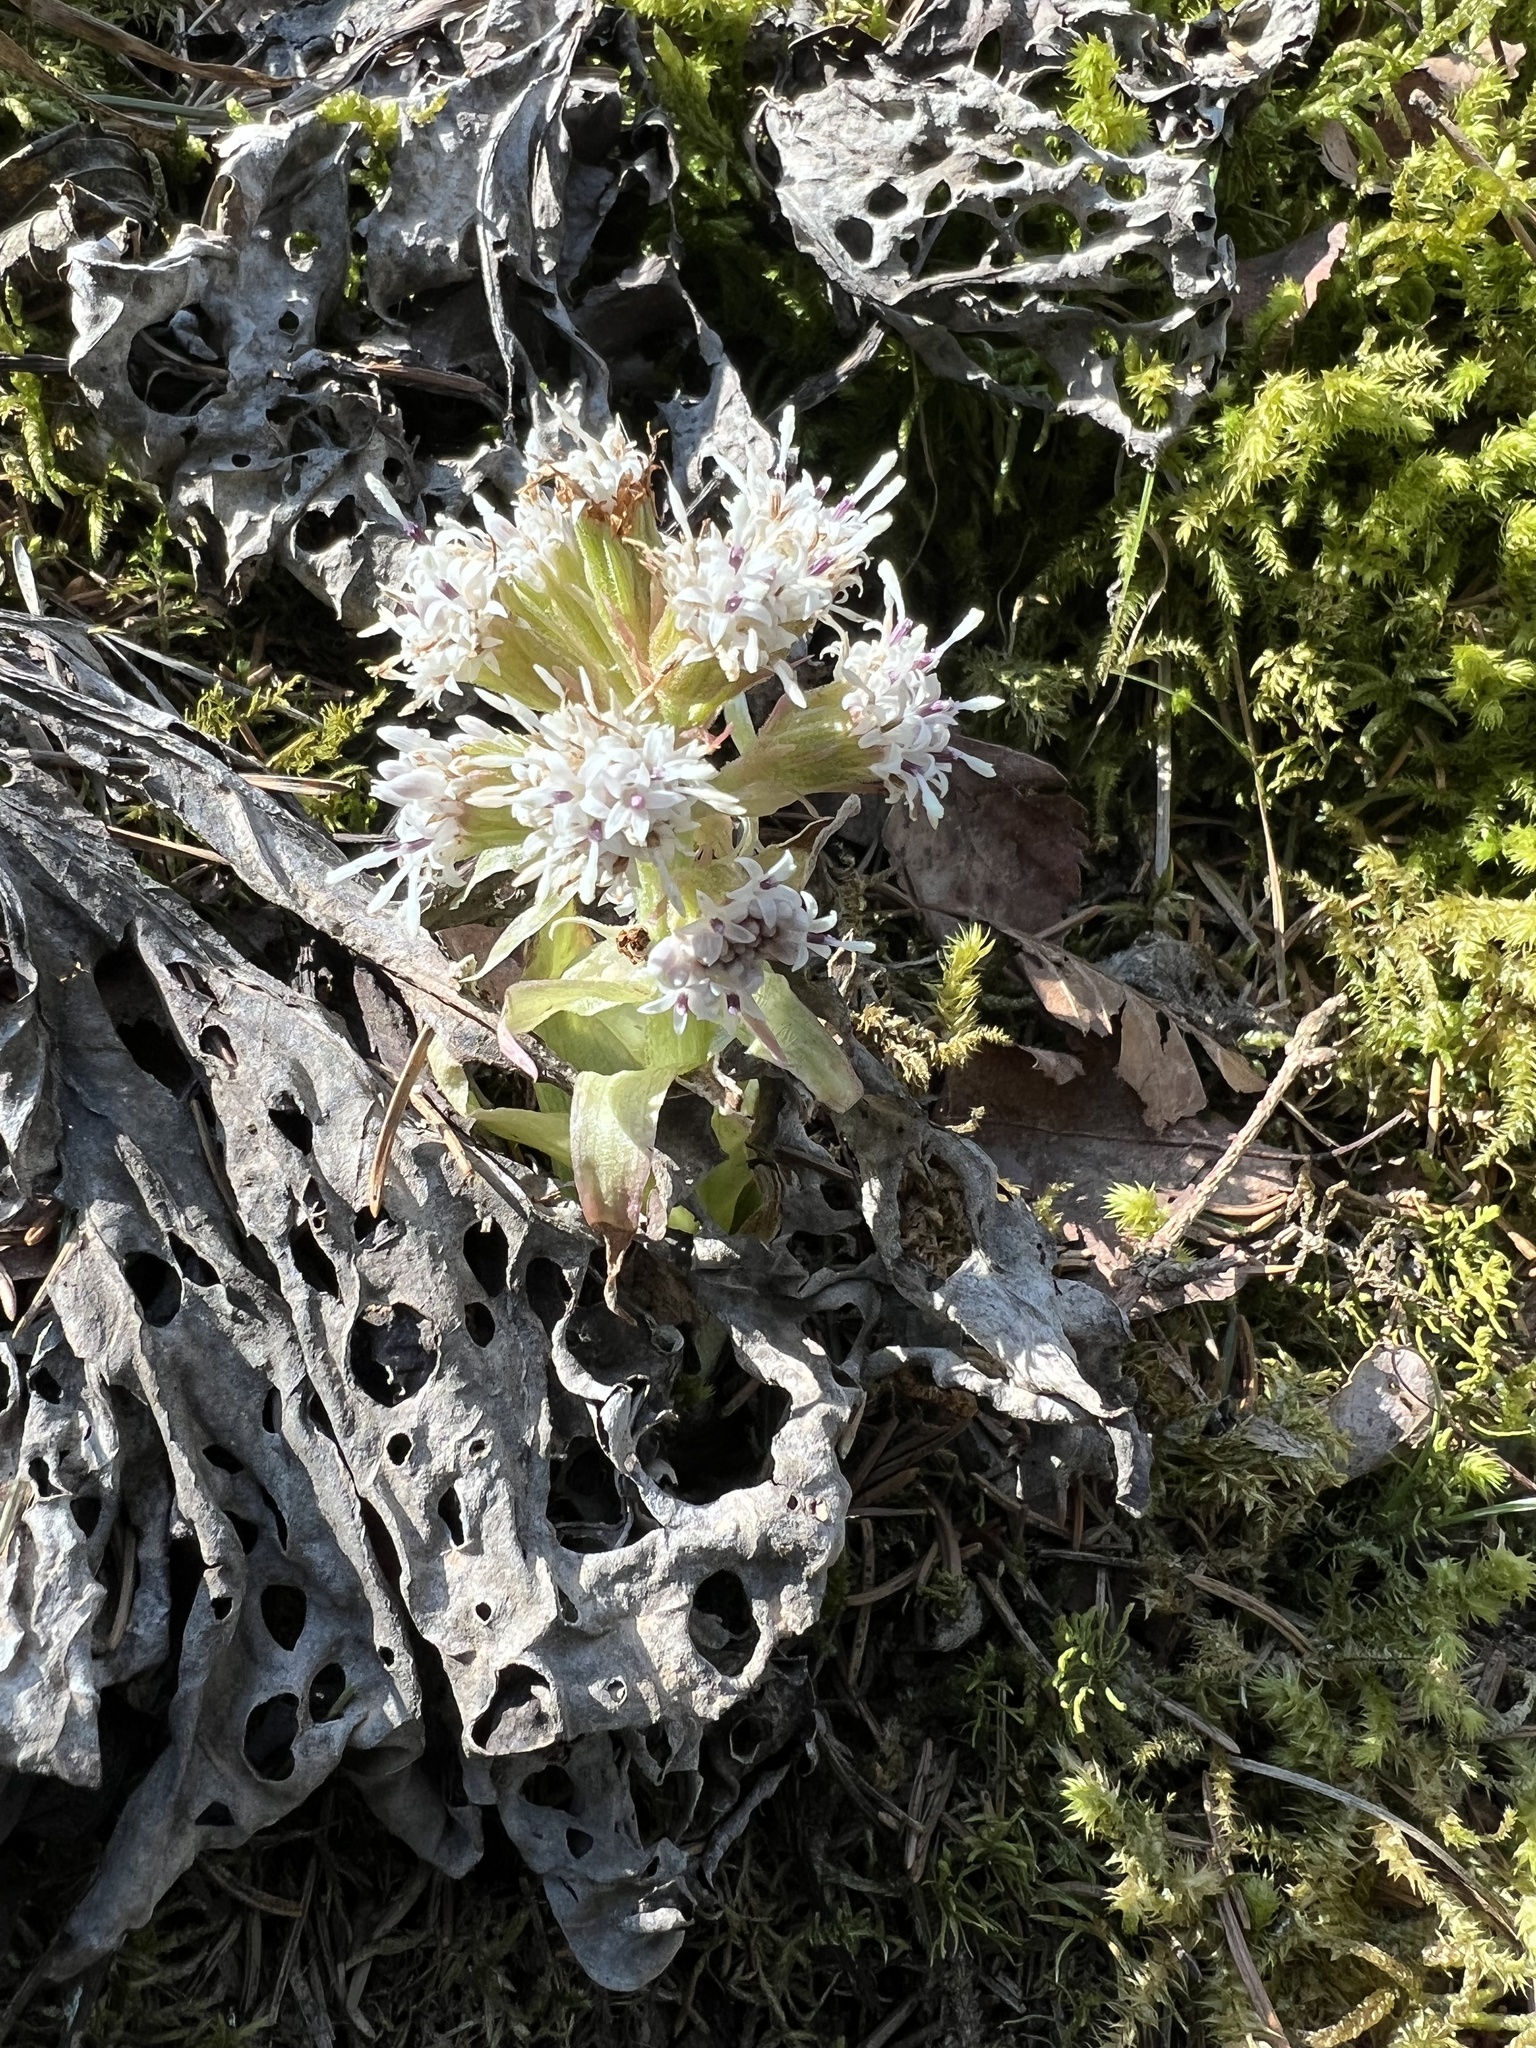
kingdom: Plantae
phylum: Tracheophyta
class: Magnoliopsida
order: Asterales
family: Asteraceae
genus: Petasites
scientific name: Petasites albus
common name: White butterbur
